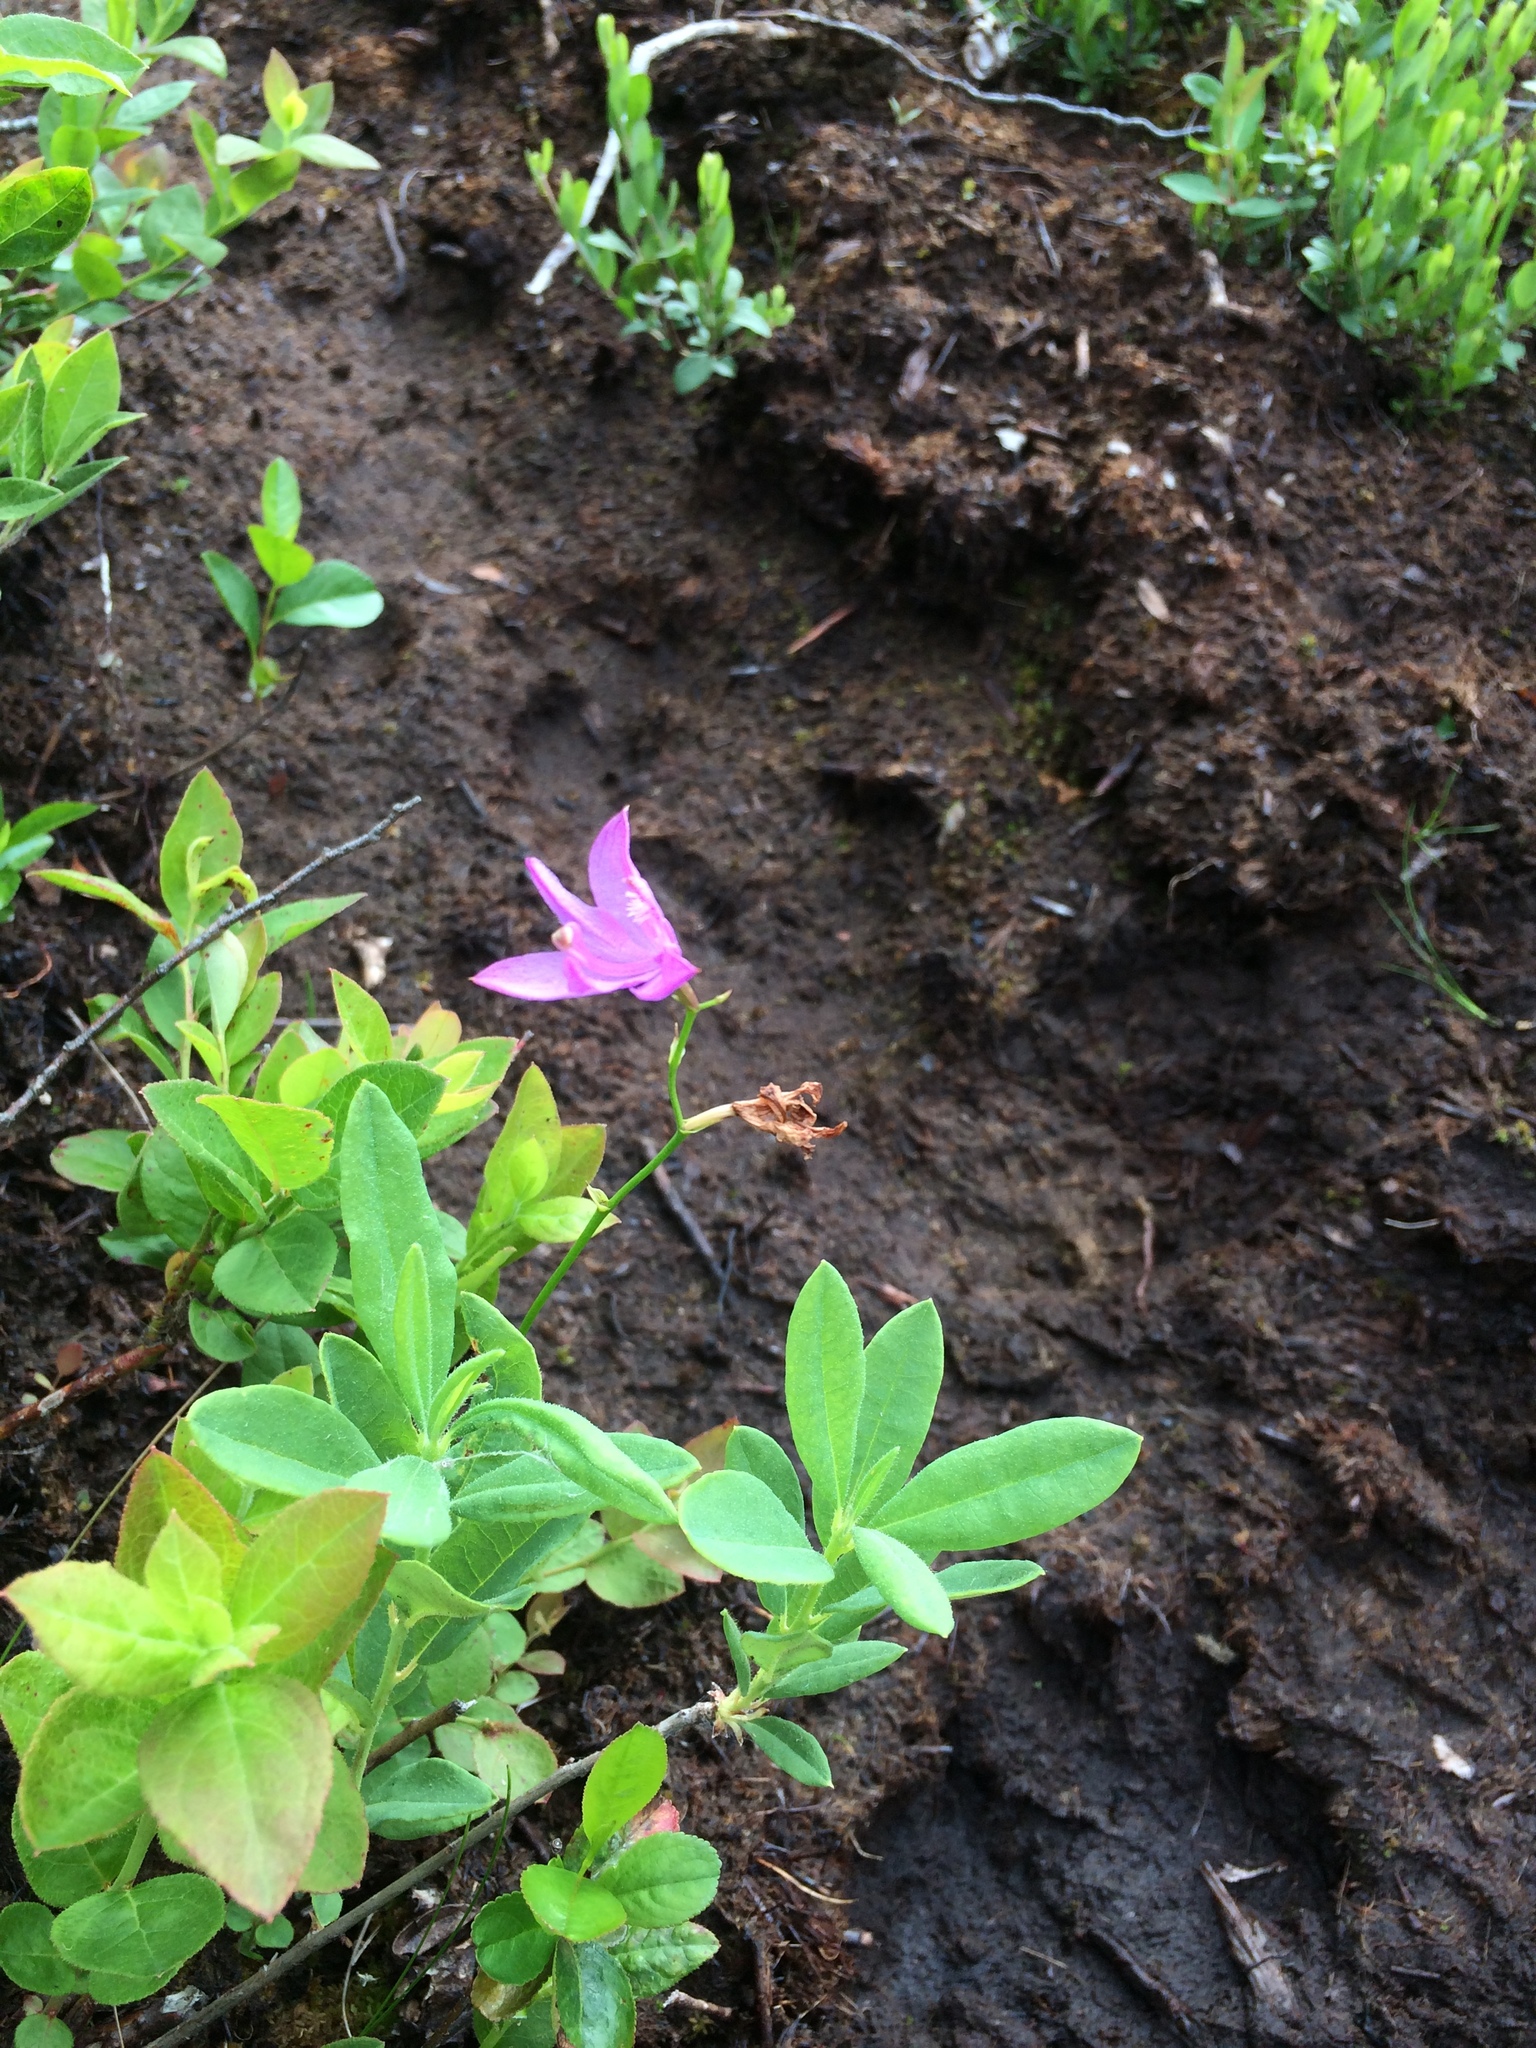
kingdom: Plantae
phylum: Tracheophyta
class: Liliopsida
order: Asparagales
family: Orchidaceae
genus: Calopogon
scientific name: Calopogon tuberosus
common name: Grass-pink
